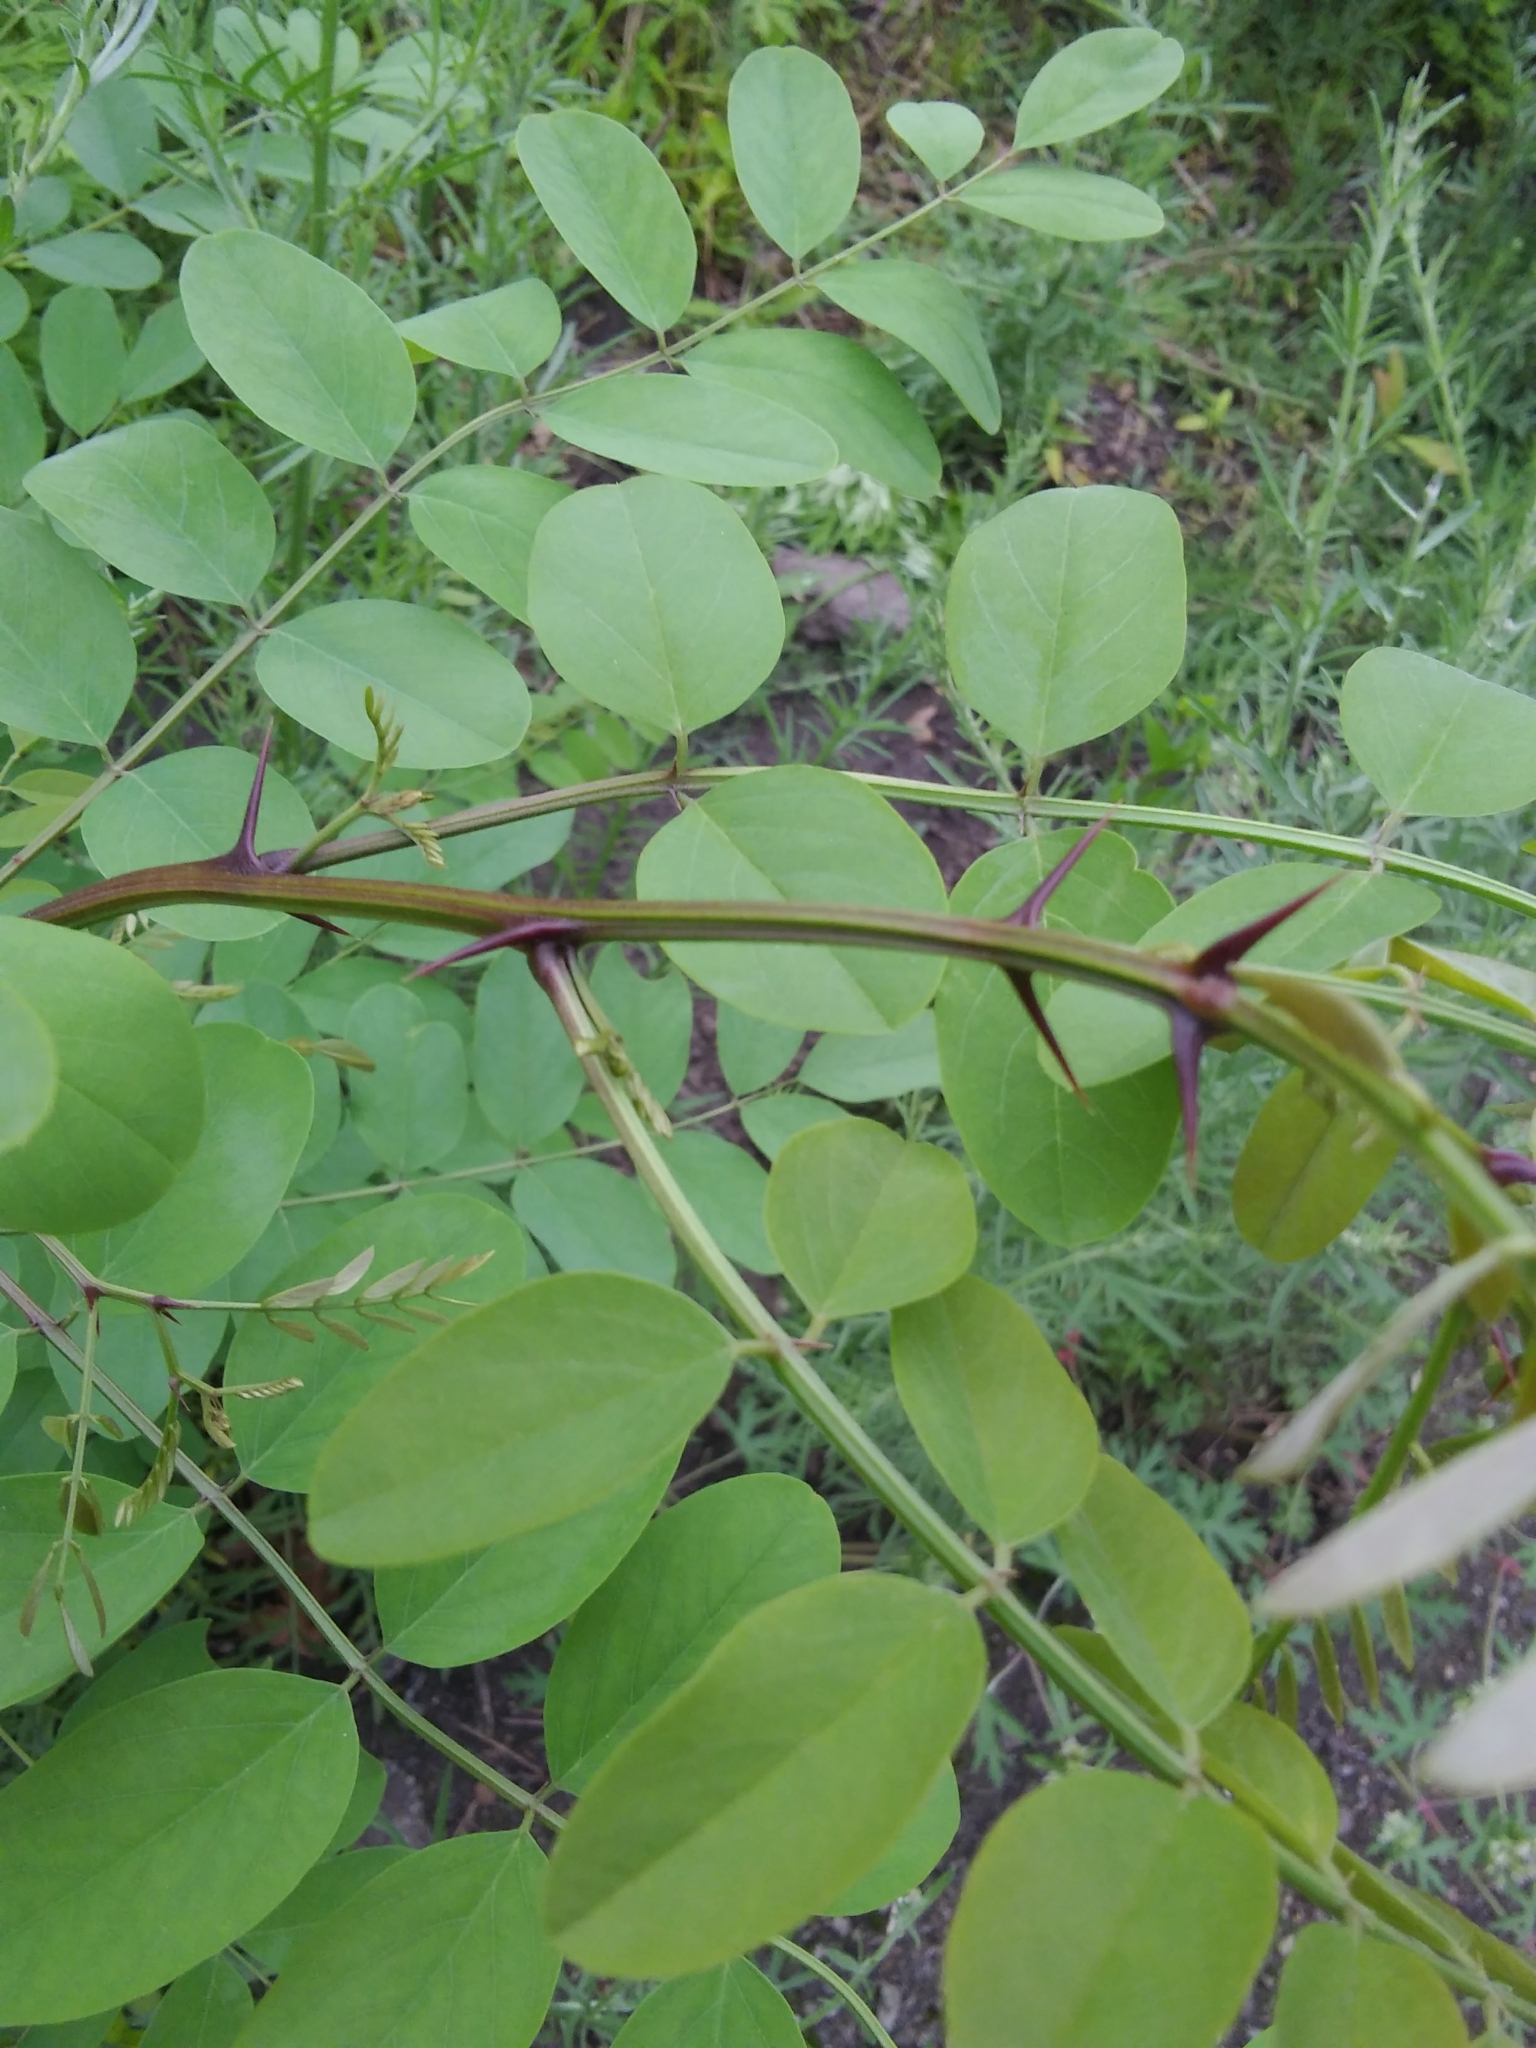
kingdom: Plantae
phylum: Tracheophyta
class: Magnoliopsida
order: Fabales
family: Fabaceae
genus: Robinia
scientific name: Robinia pseudoacacia
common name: Black locust
